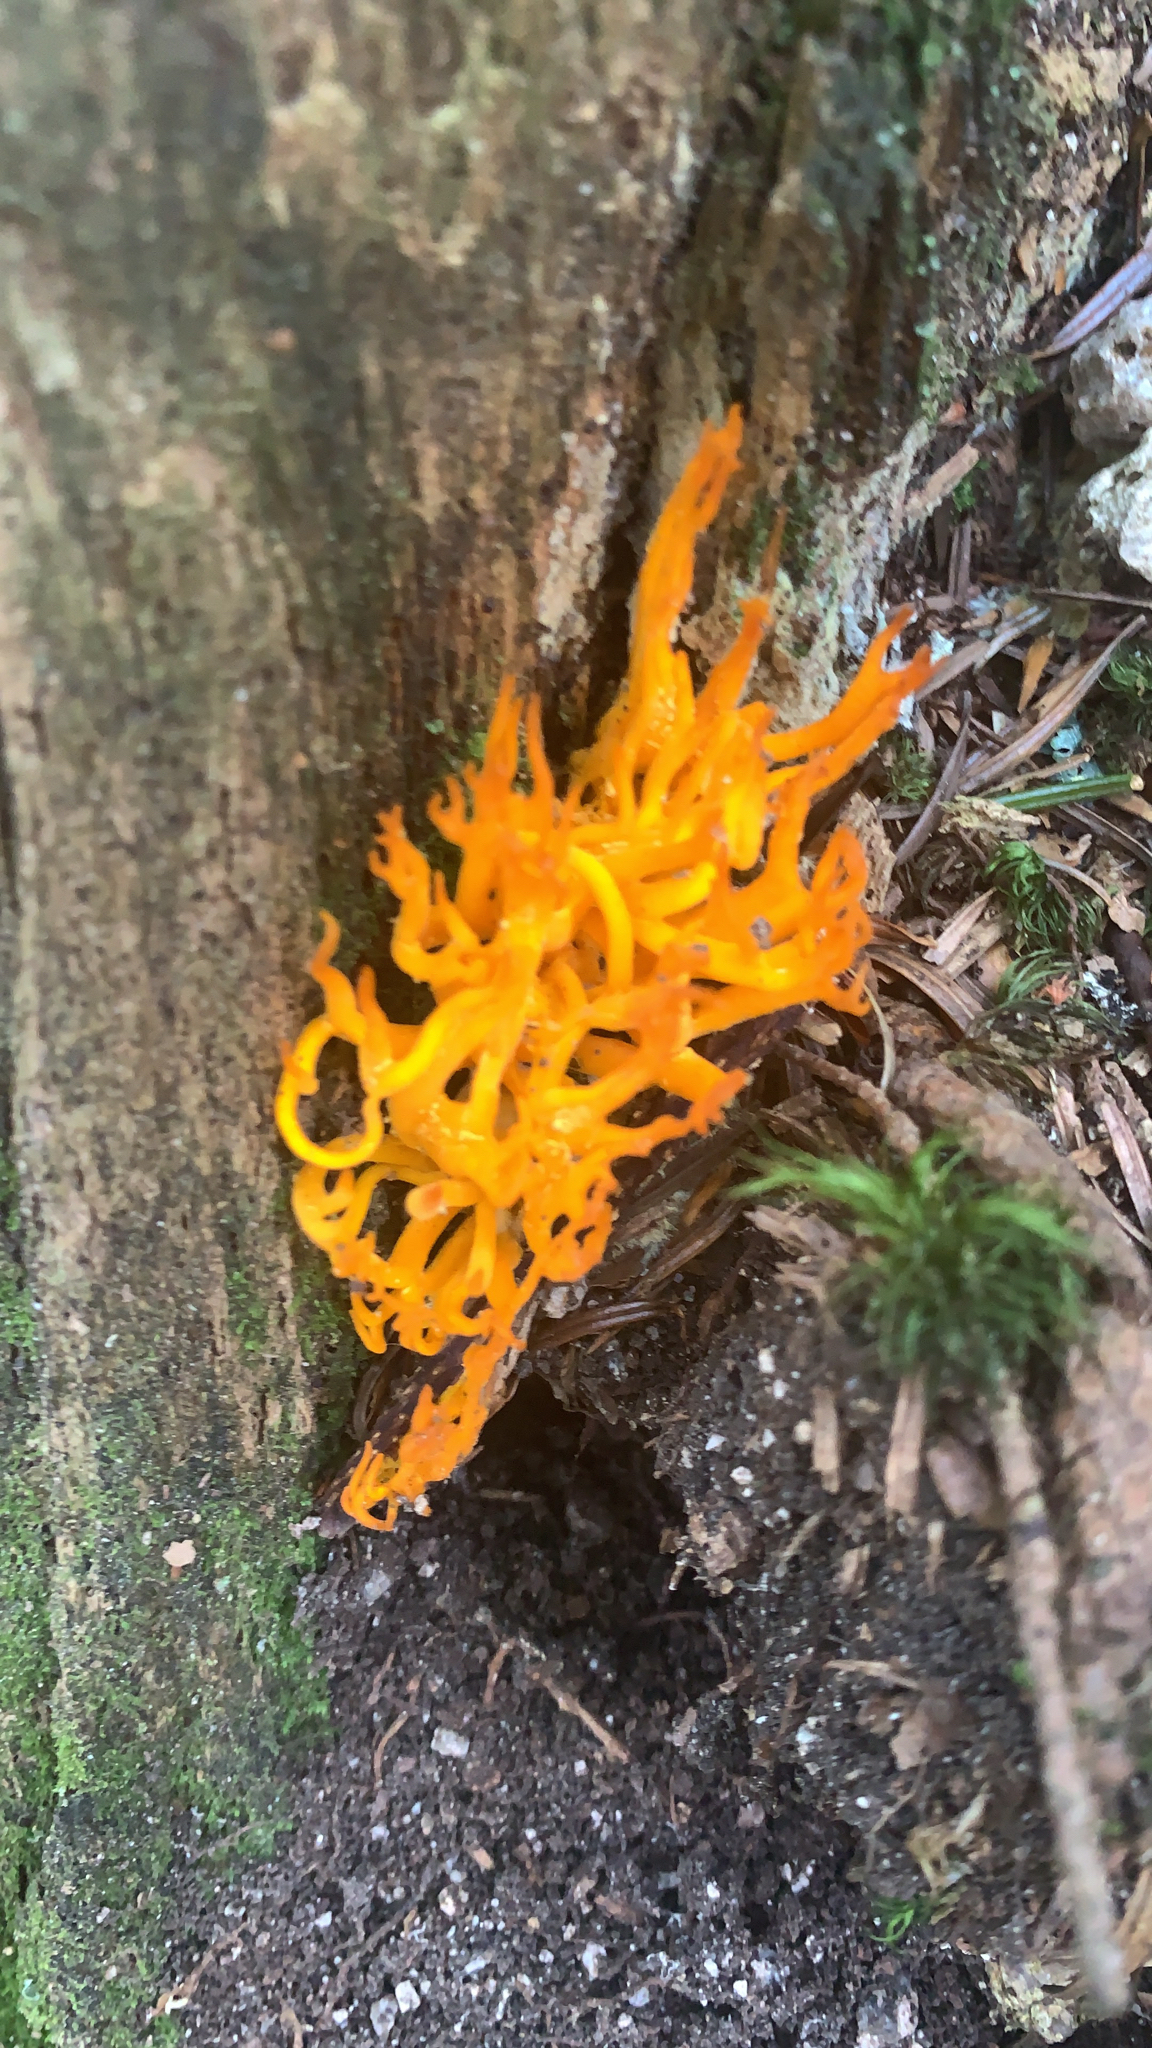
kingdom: Fungi
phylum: Basidiomycota
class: Dacrymycetes
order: Dacrymycetales
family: Dacrymycetaceae
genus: Calocera
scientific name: Calocera viscosa
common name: Yellow stagshorn
